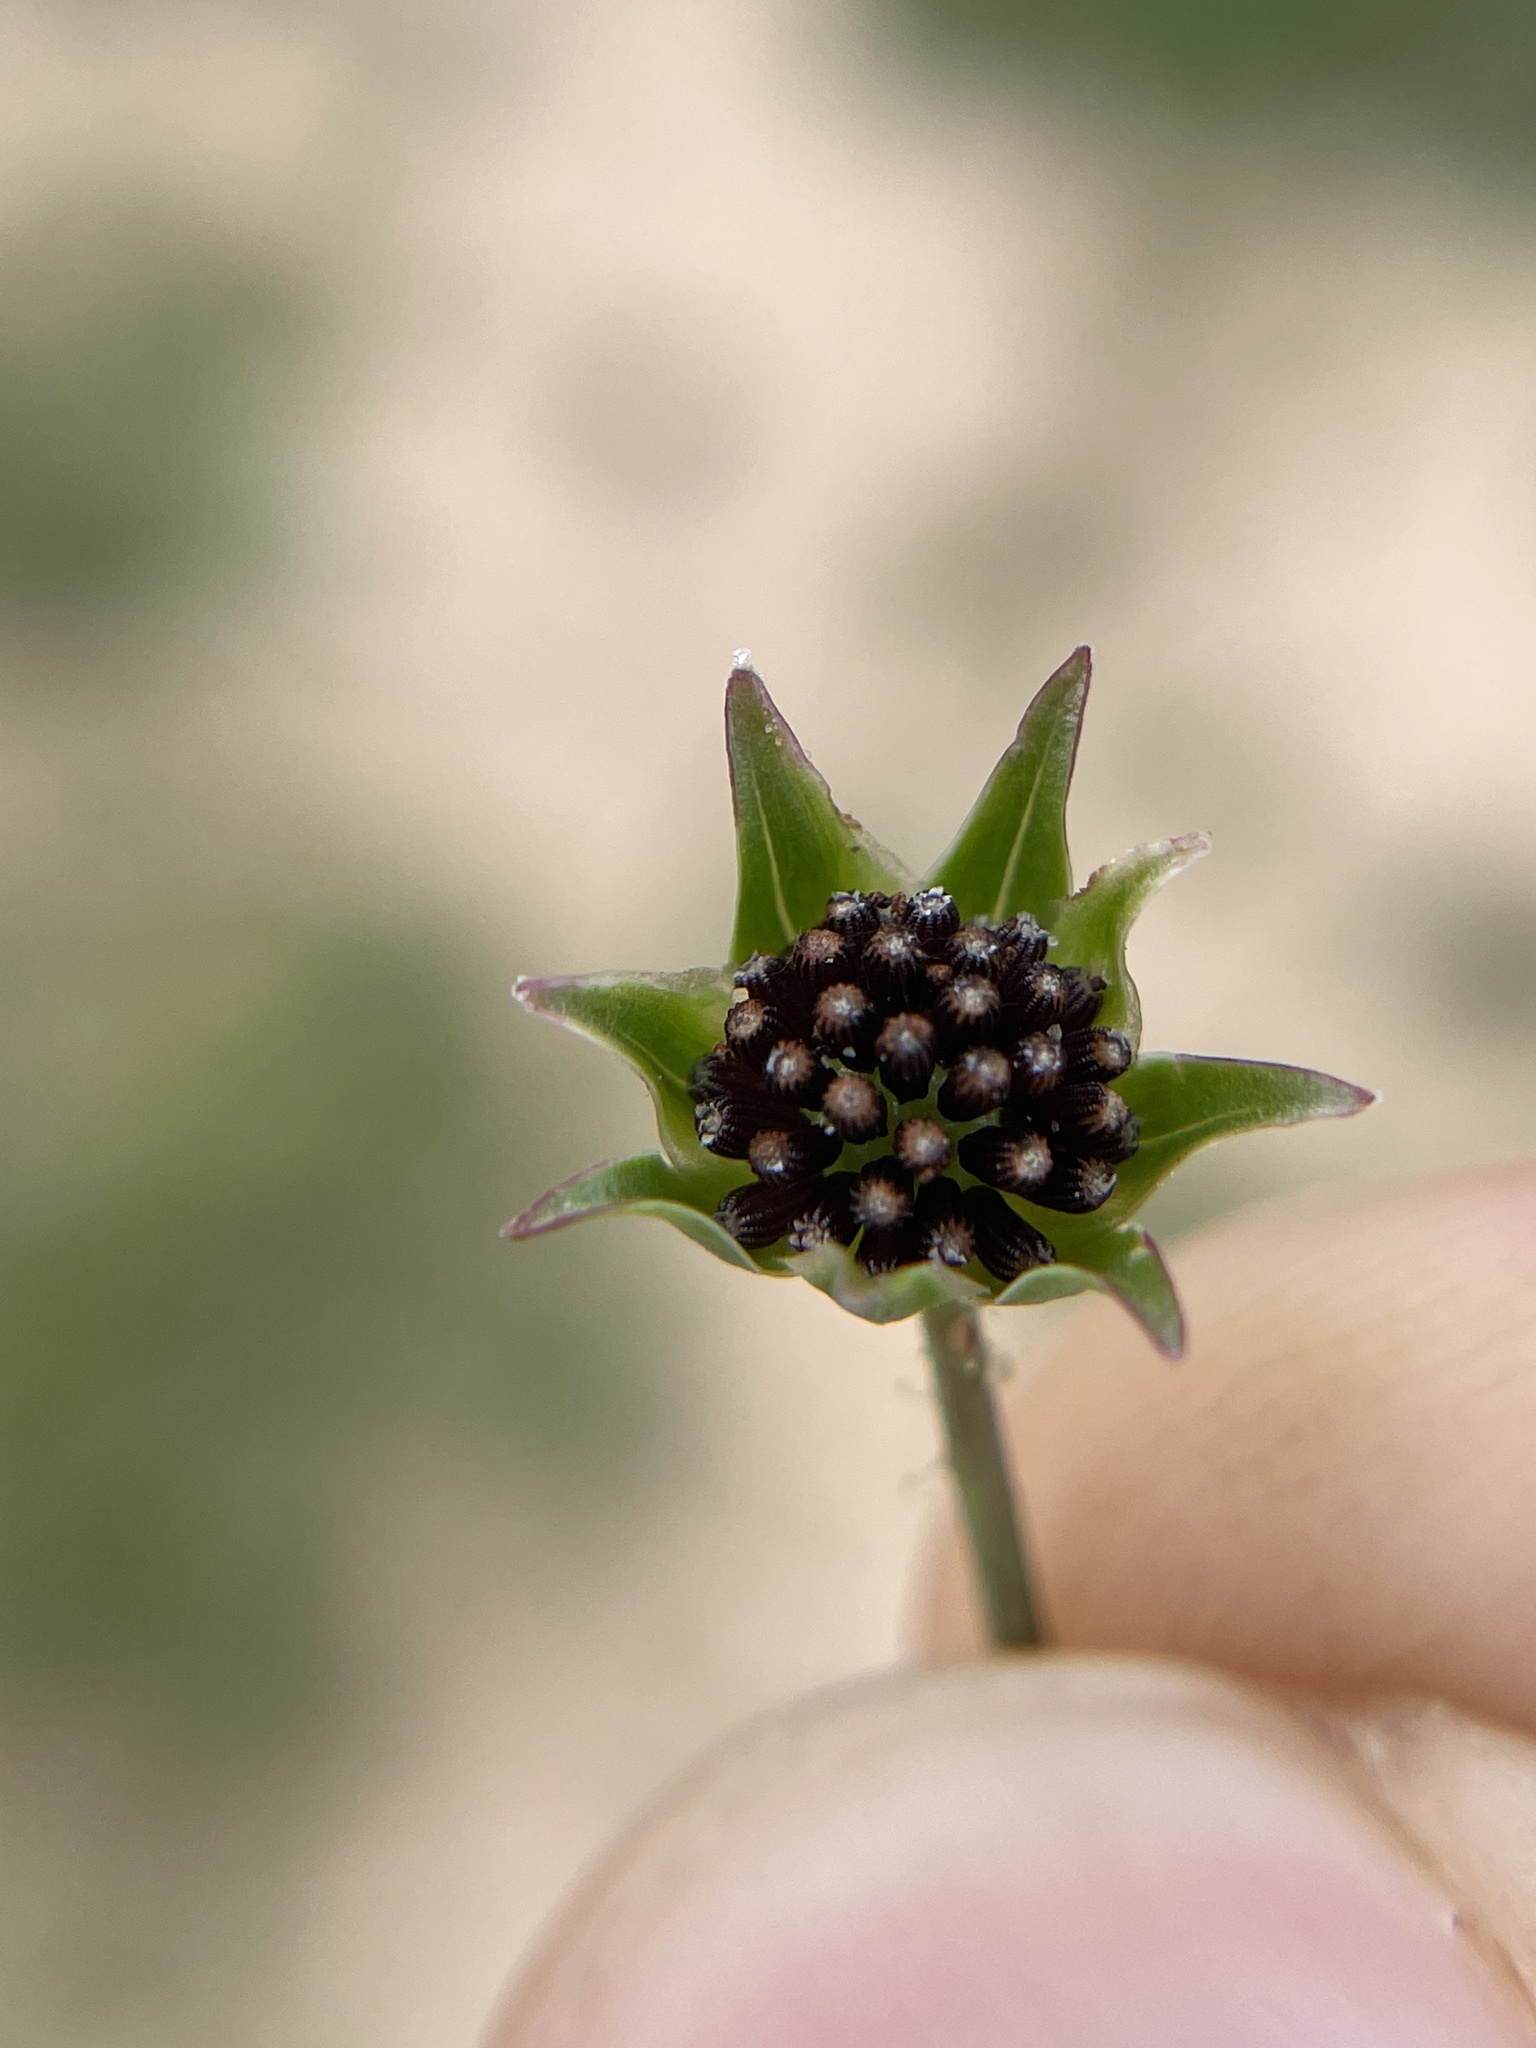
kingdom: Plantae
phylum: Tracheophyta
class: Magnoliopsida
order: Asterales
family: Asteraceae
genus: Krigia
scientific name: Krigia wrightii
